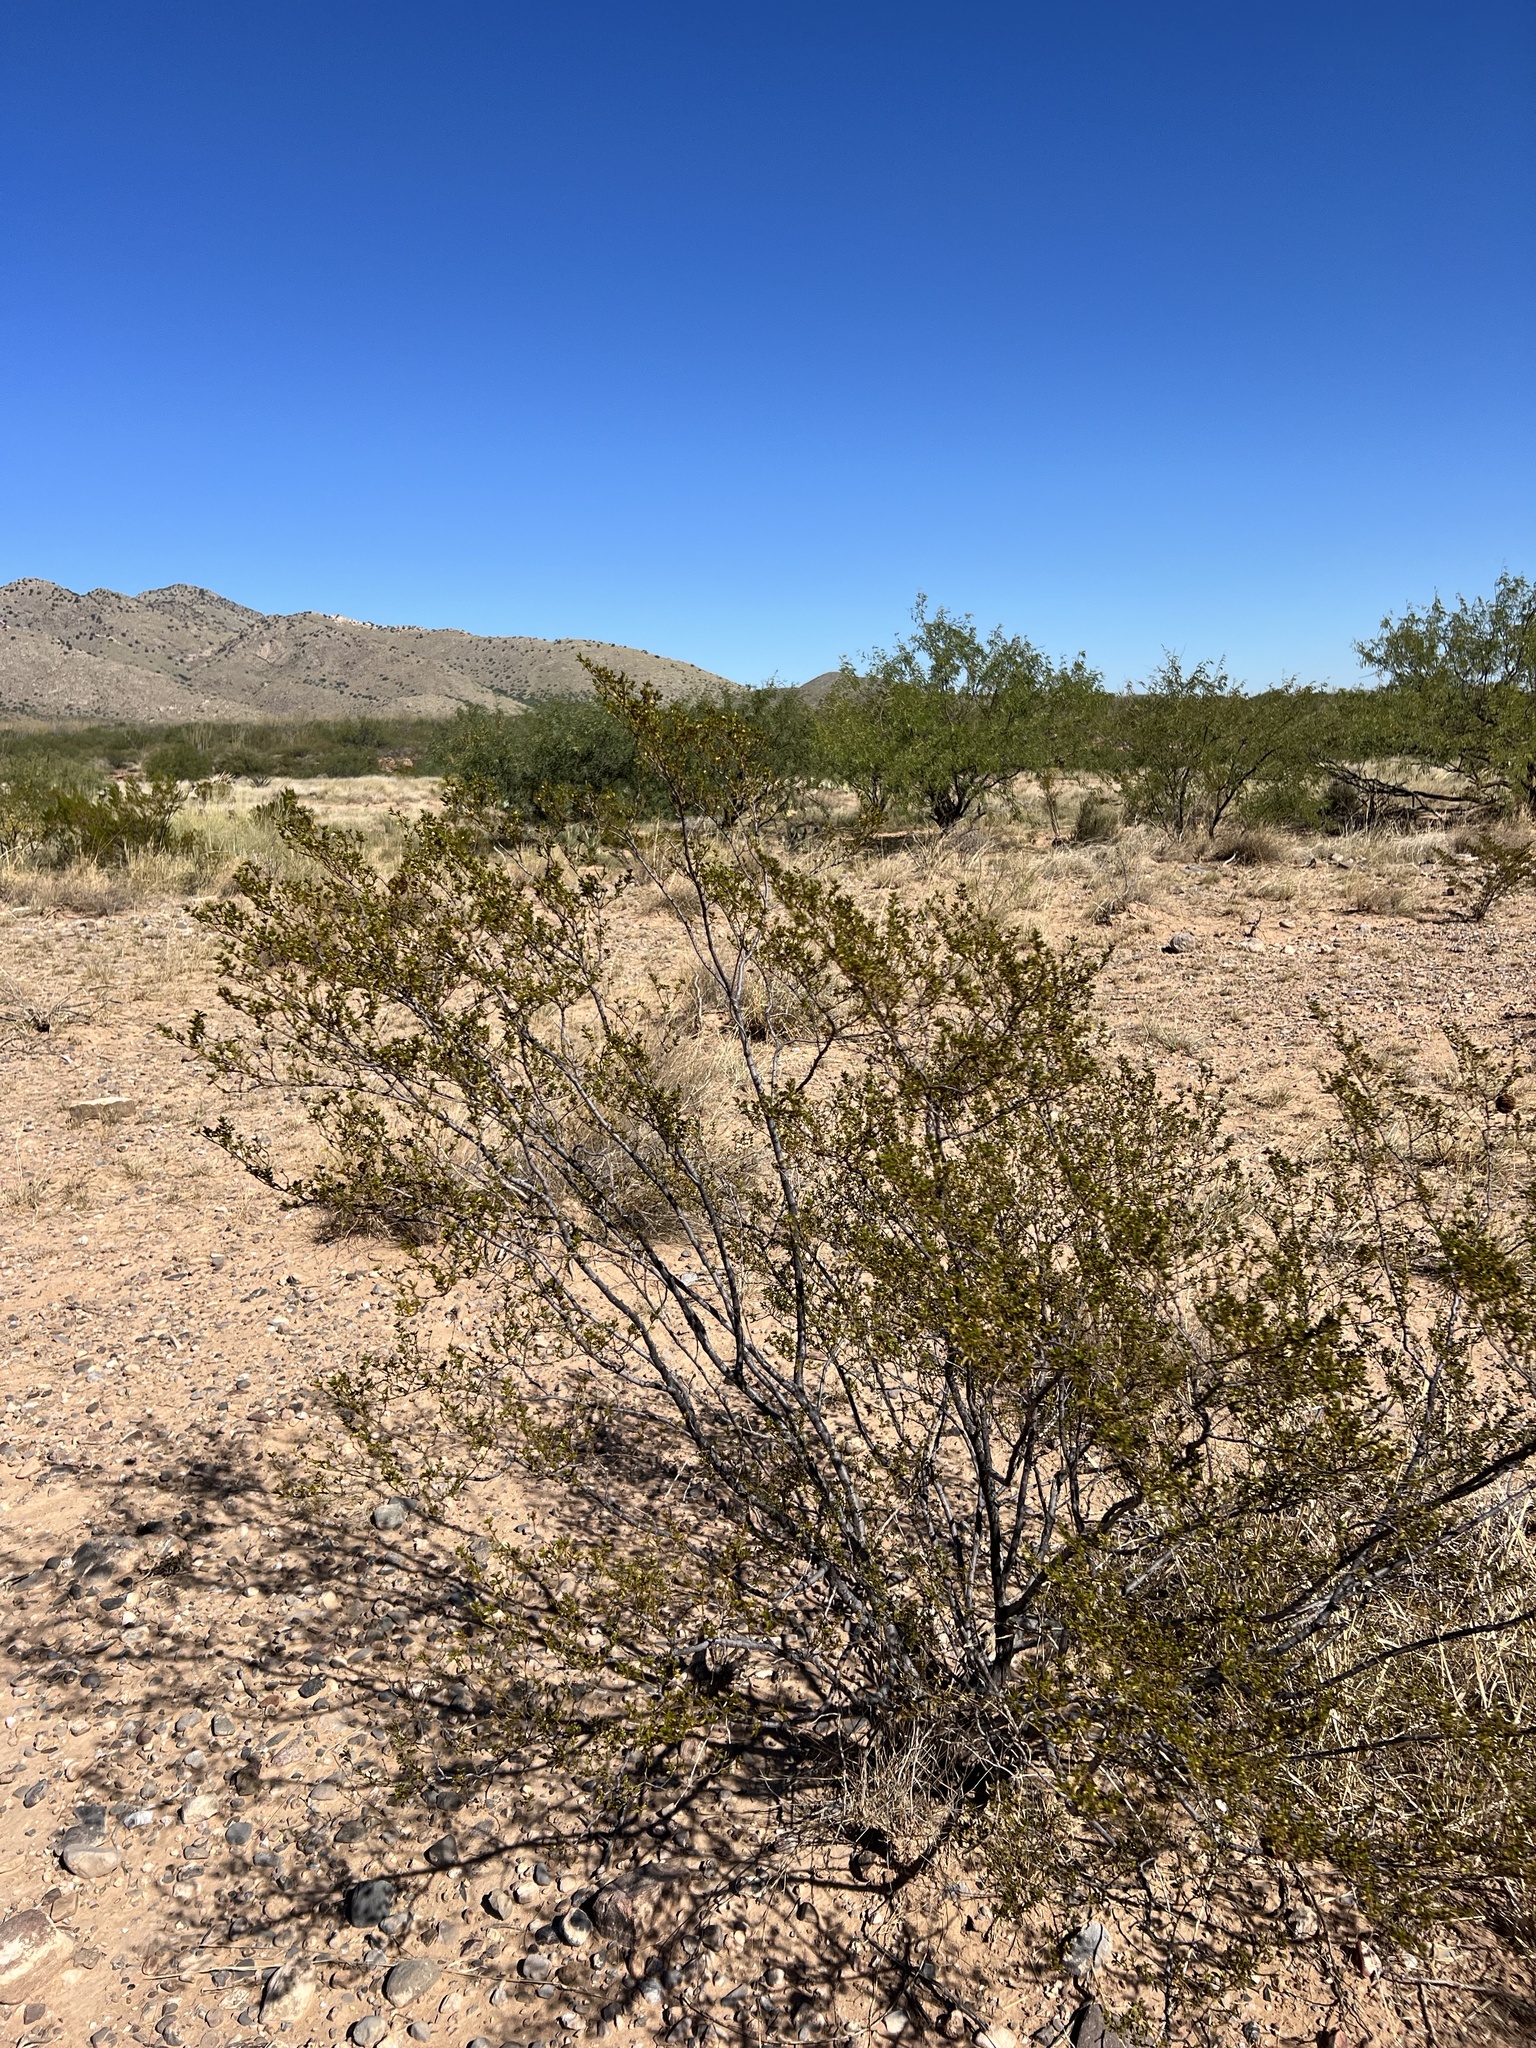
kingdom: Plantae
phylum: Tracheophyta
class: Magnoliopsida
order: Zygophyllales
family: Zygophyllaceae
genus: Larrea
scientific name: Larrea tridentata
